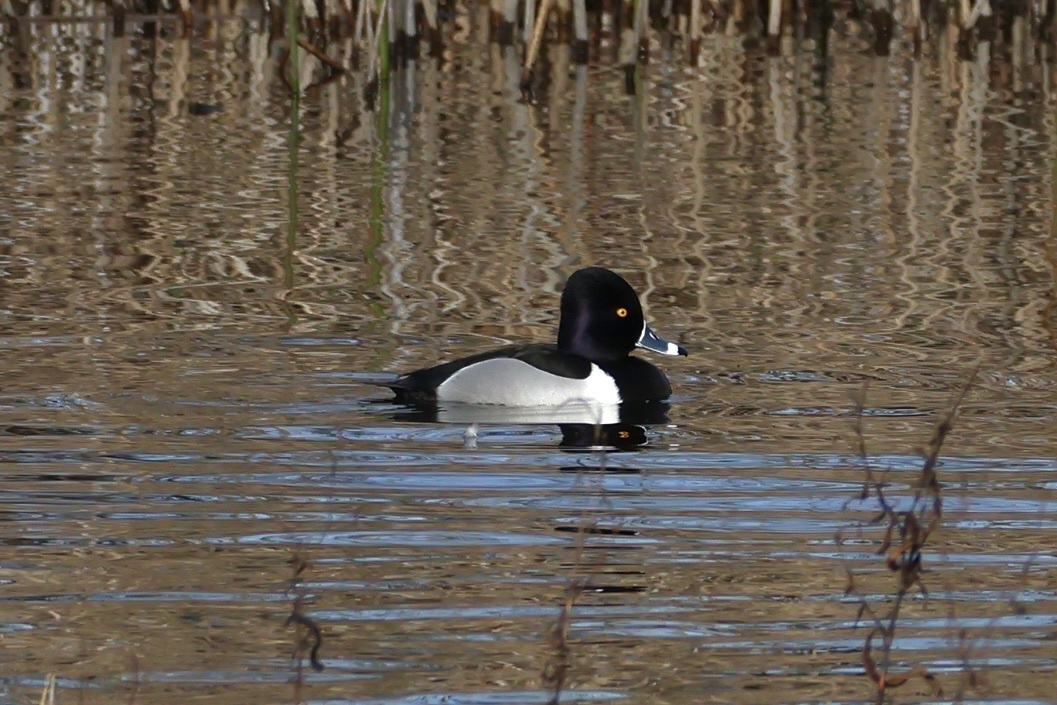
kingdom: Animalia
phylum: Chordata
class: Aves
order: Anseriformes
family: Anatidae
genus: Aythya
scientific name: Aythya collaris
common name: Ring-necked duck
